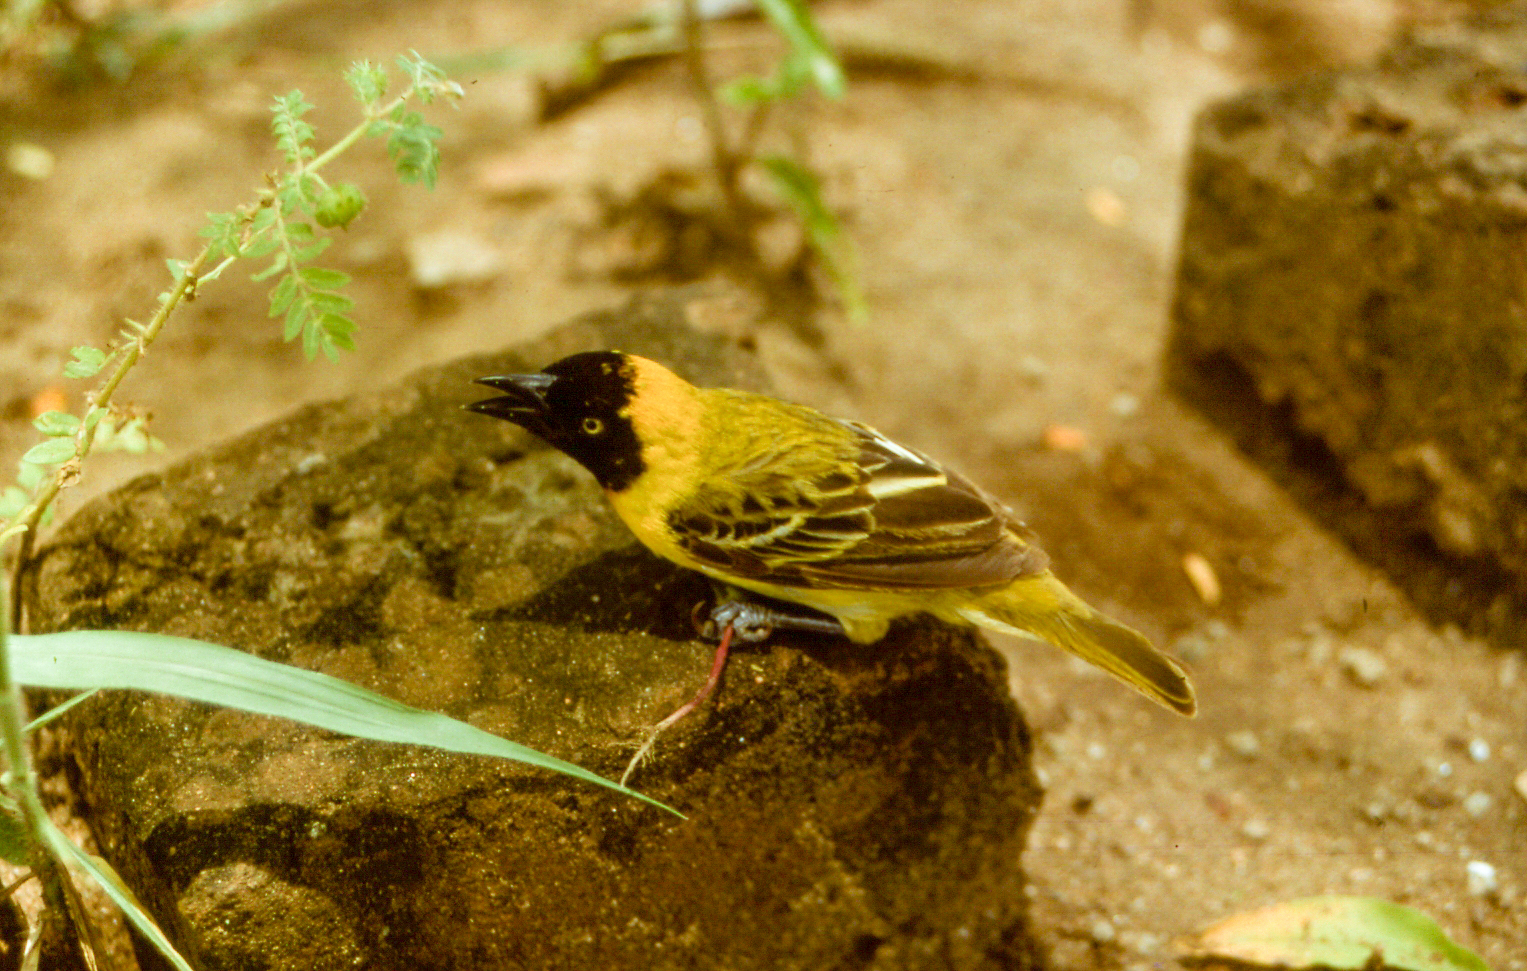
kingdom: Animalia
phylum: Chordata
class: Aves
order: Passeriformes
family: Ploceidae
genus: Ploceus
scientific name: Ploceus intermedius
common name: Lesser masked weaver
